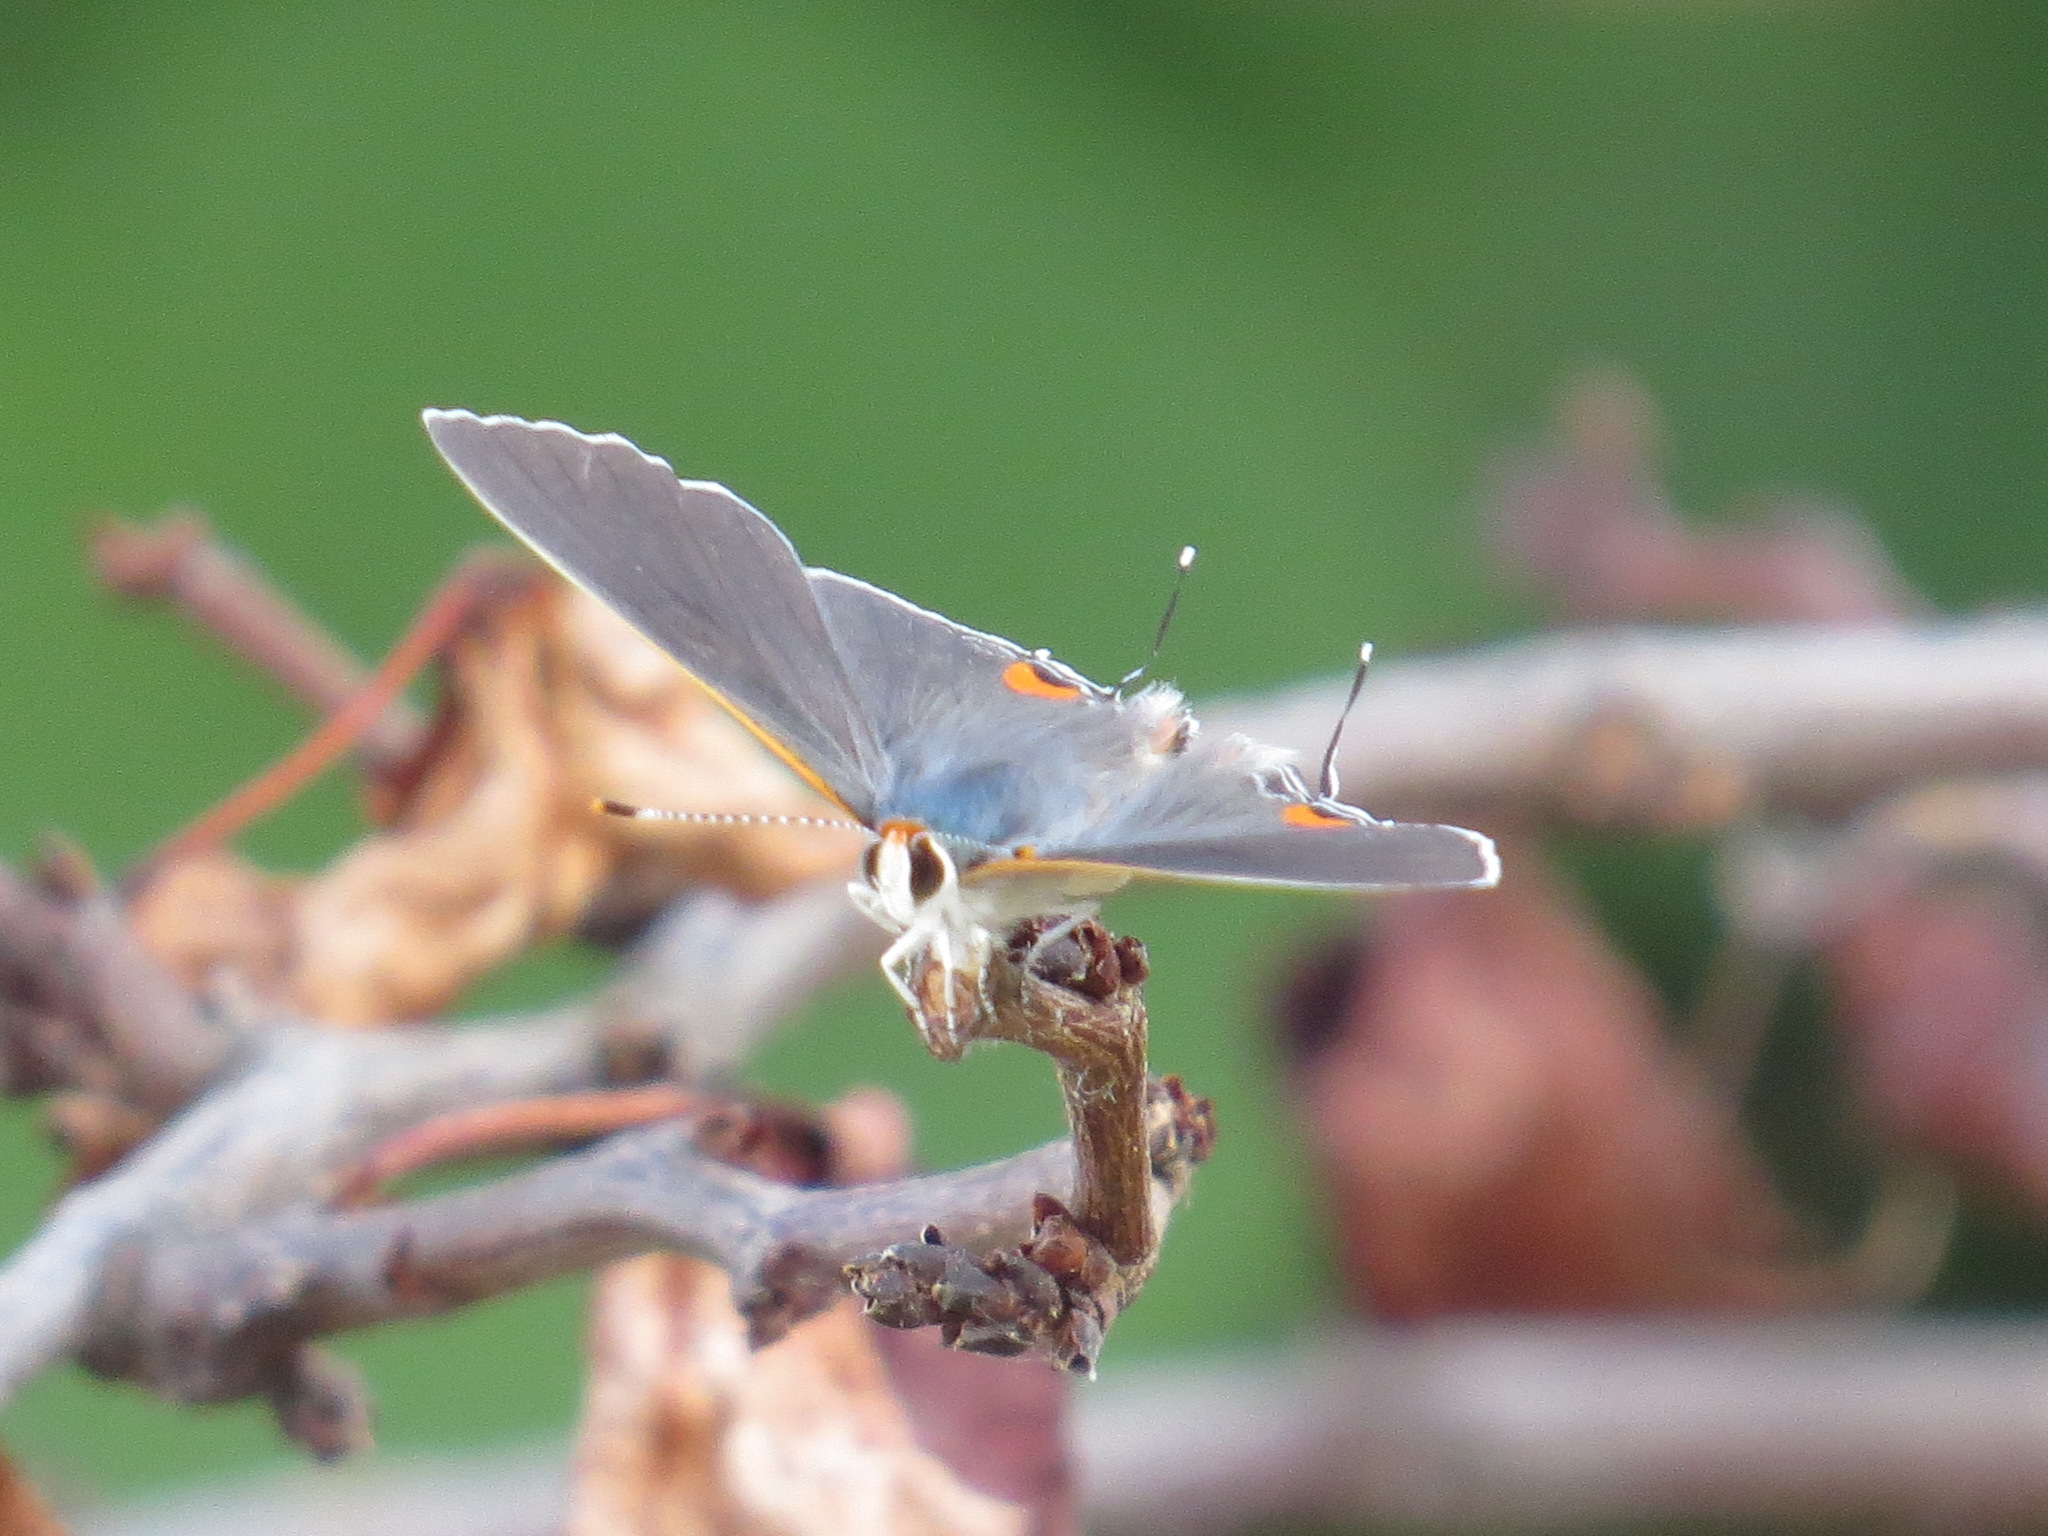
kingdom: Animalia
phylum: Arthropoda
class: Insecta
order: Lepidoptera
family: Lycaenidae
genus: Strymon
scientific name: Strymon melinus
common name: Gray hairstreak
